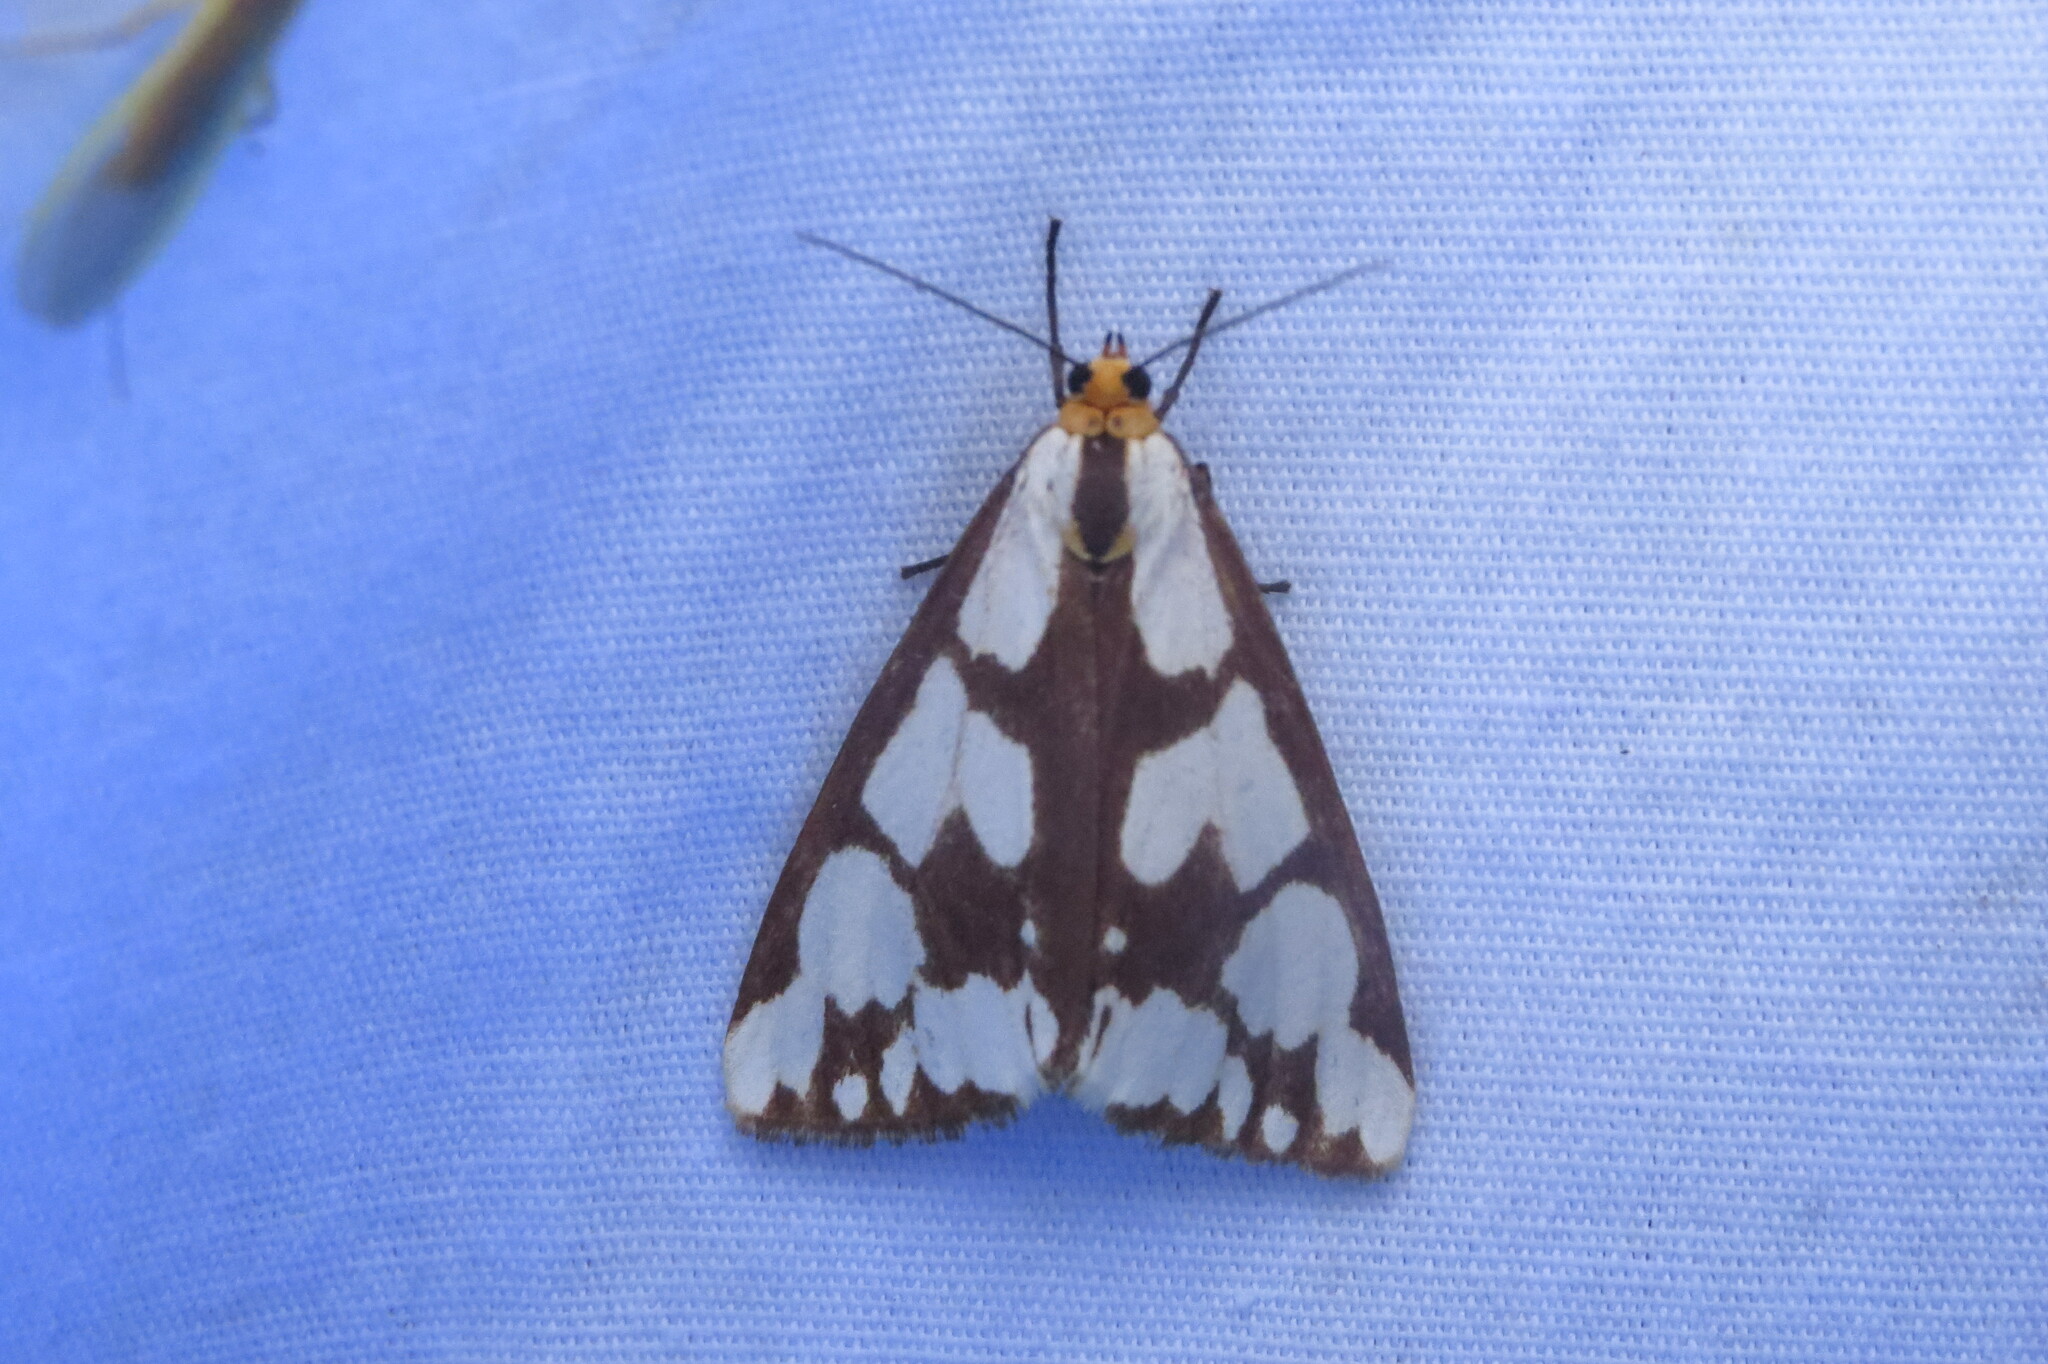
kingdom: Animalia
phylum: Arthropoda
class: Insecta
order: Lepidoptera
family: Erebidae
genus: Haploa
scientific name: Haploa confusa
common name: Confused haploa moth
